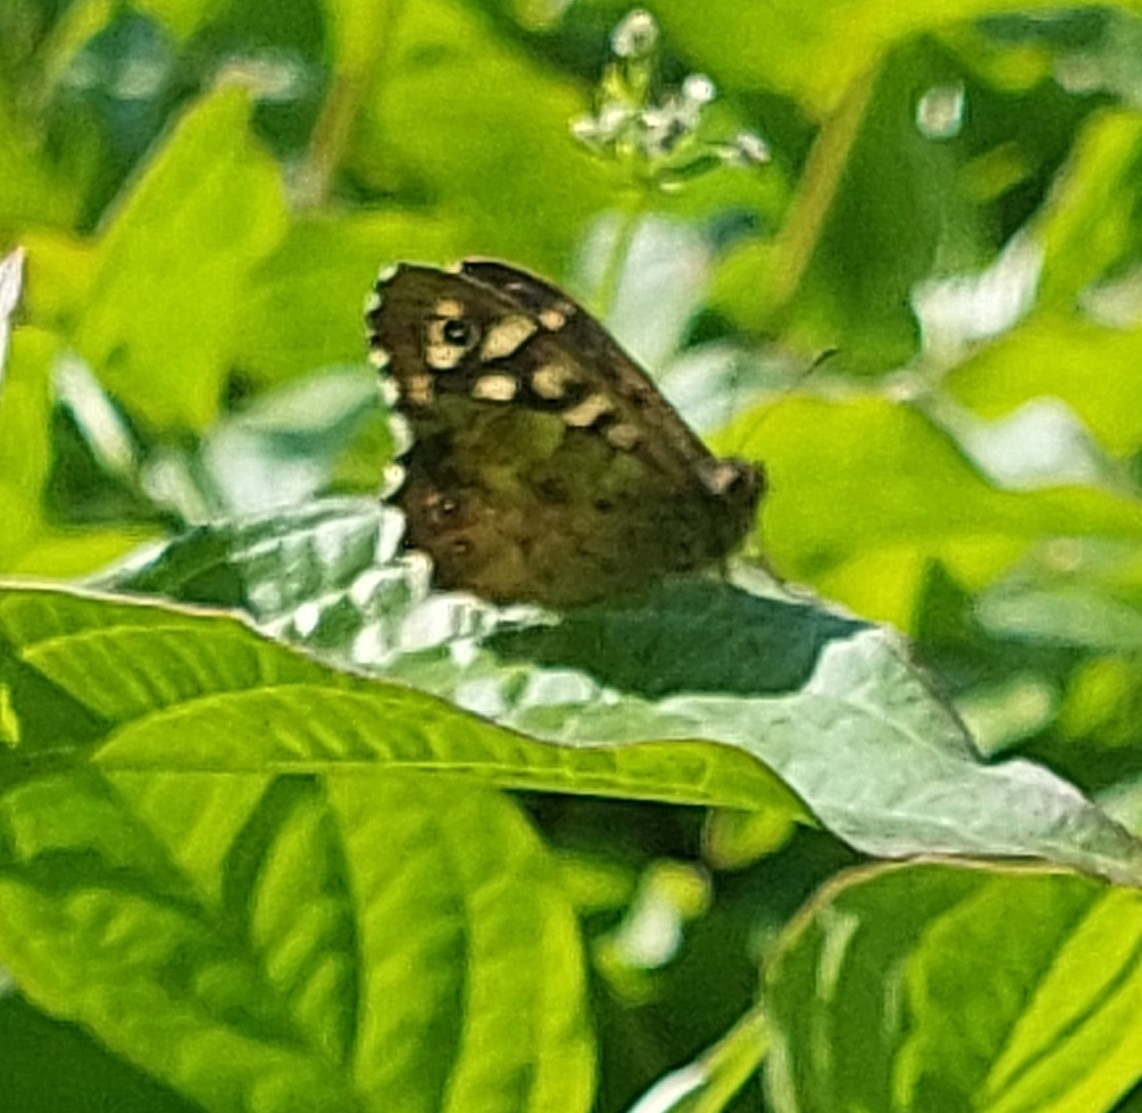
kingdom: Animalia
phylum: Arthropoda
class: Insecta
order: Lepidoptera
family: Nymphalidae
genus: Pararge
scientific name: Pararge aegeria
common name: Speckled wood
